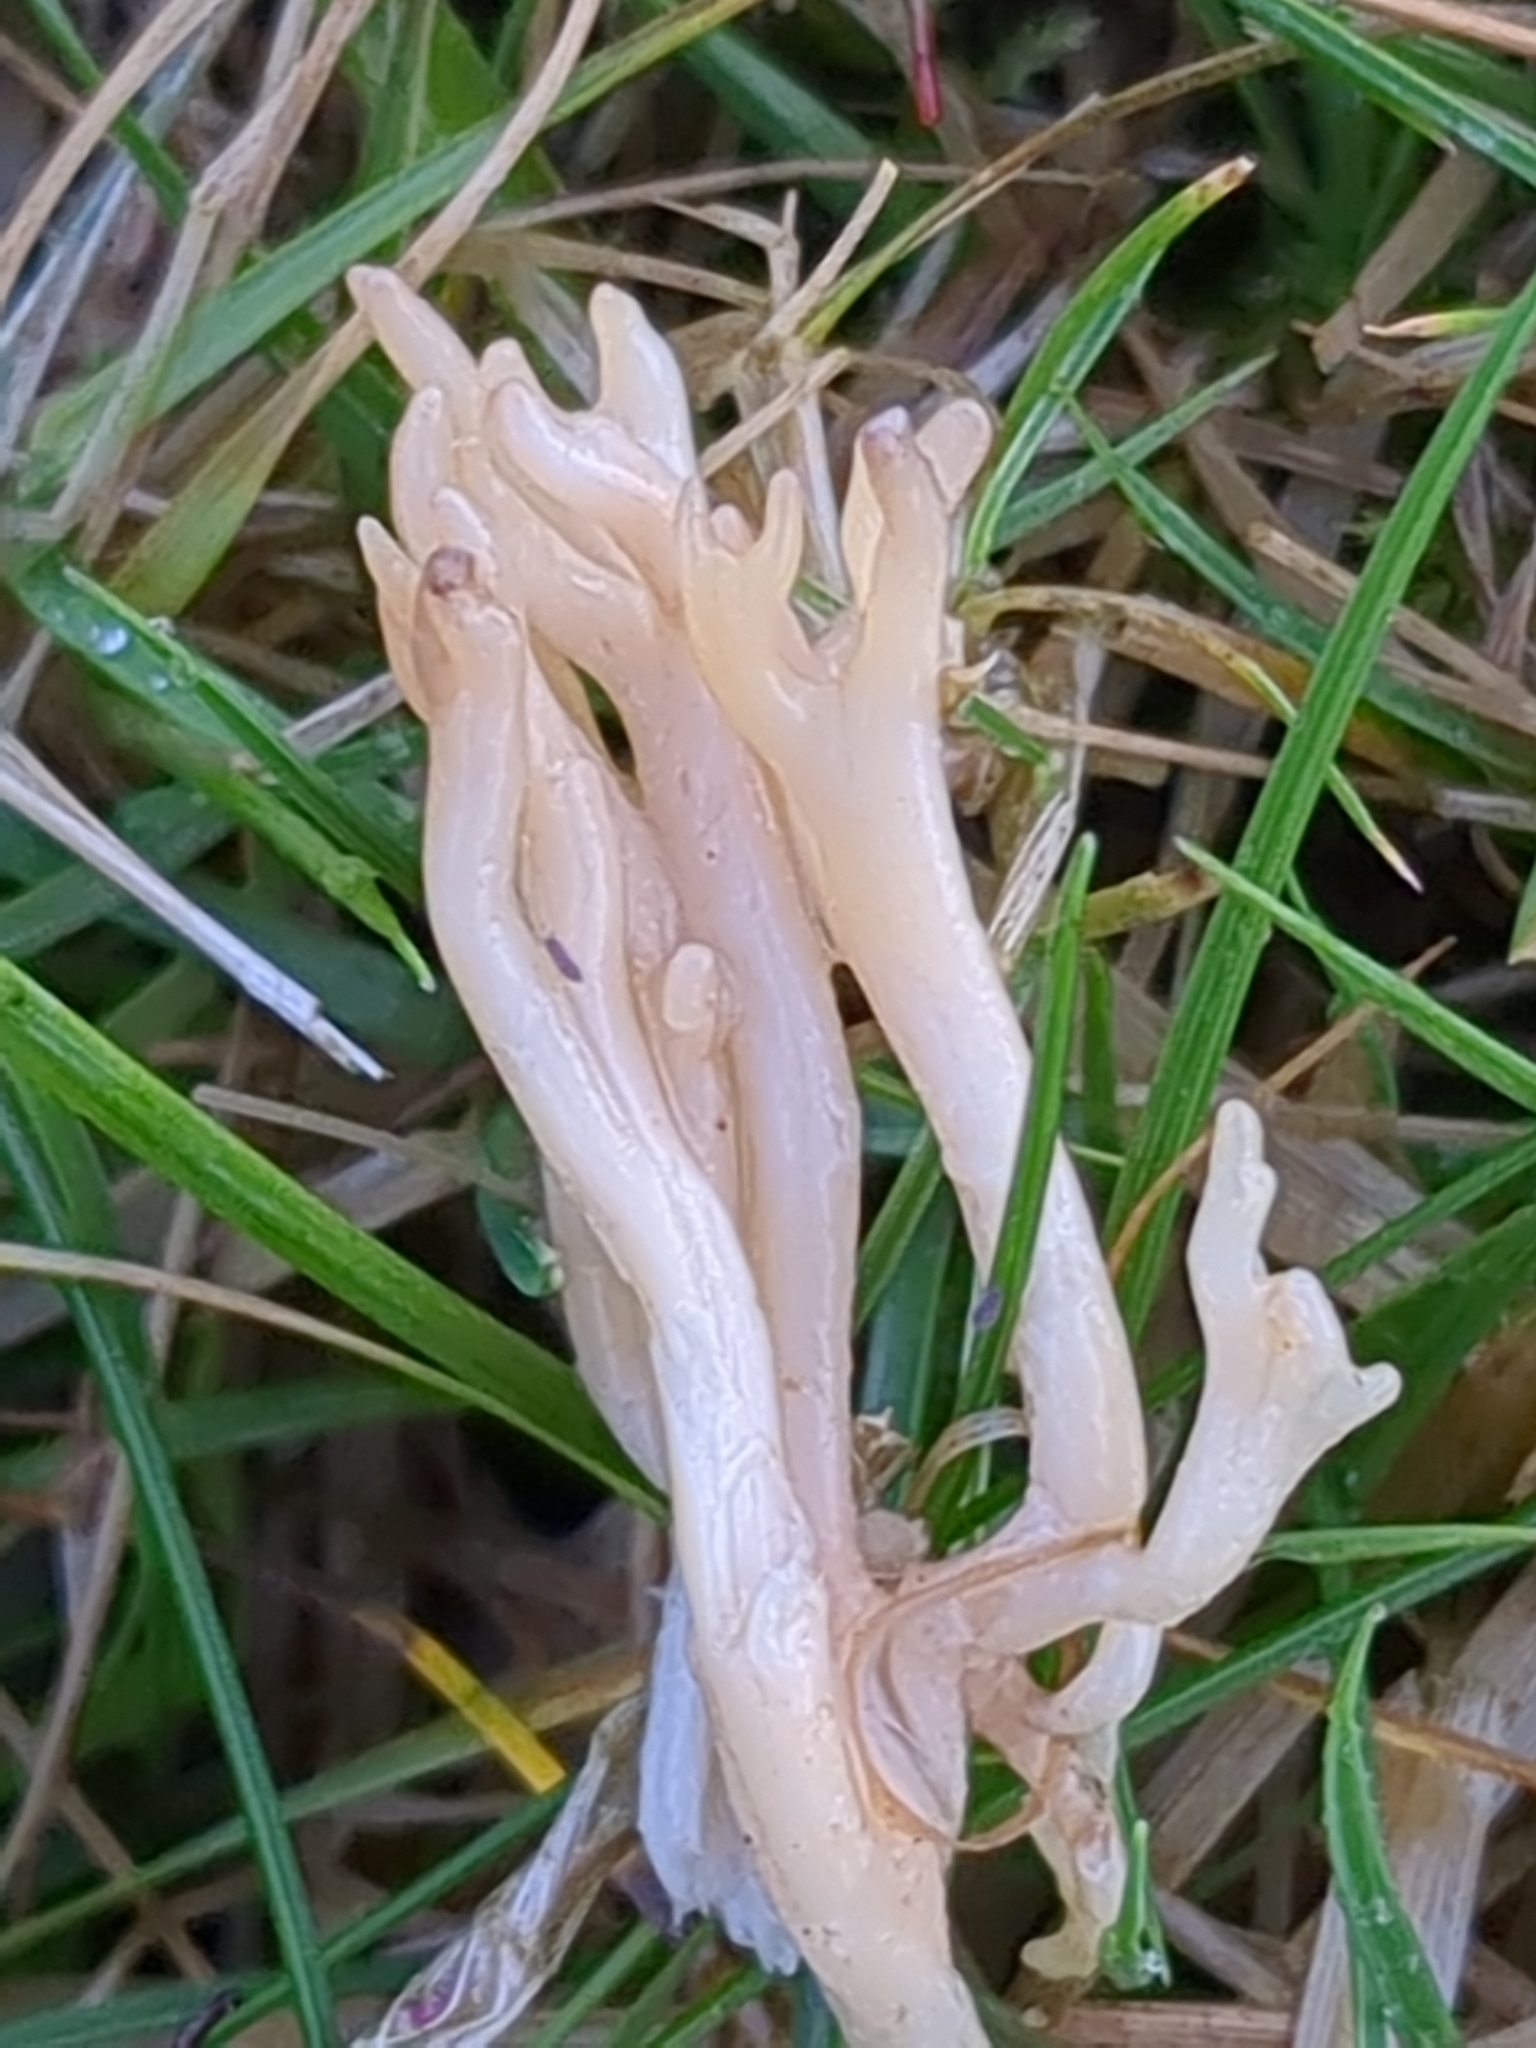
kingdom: Fungi
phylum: Basidiomycota
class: Agaricomycetes
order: Agaricales
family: Clavariaceae
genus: Clavulinopsis
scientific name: Clavulinopsis umbrinella
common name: Beige coral
